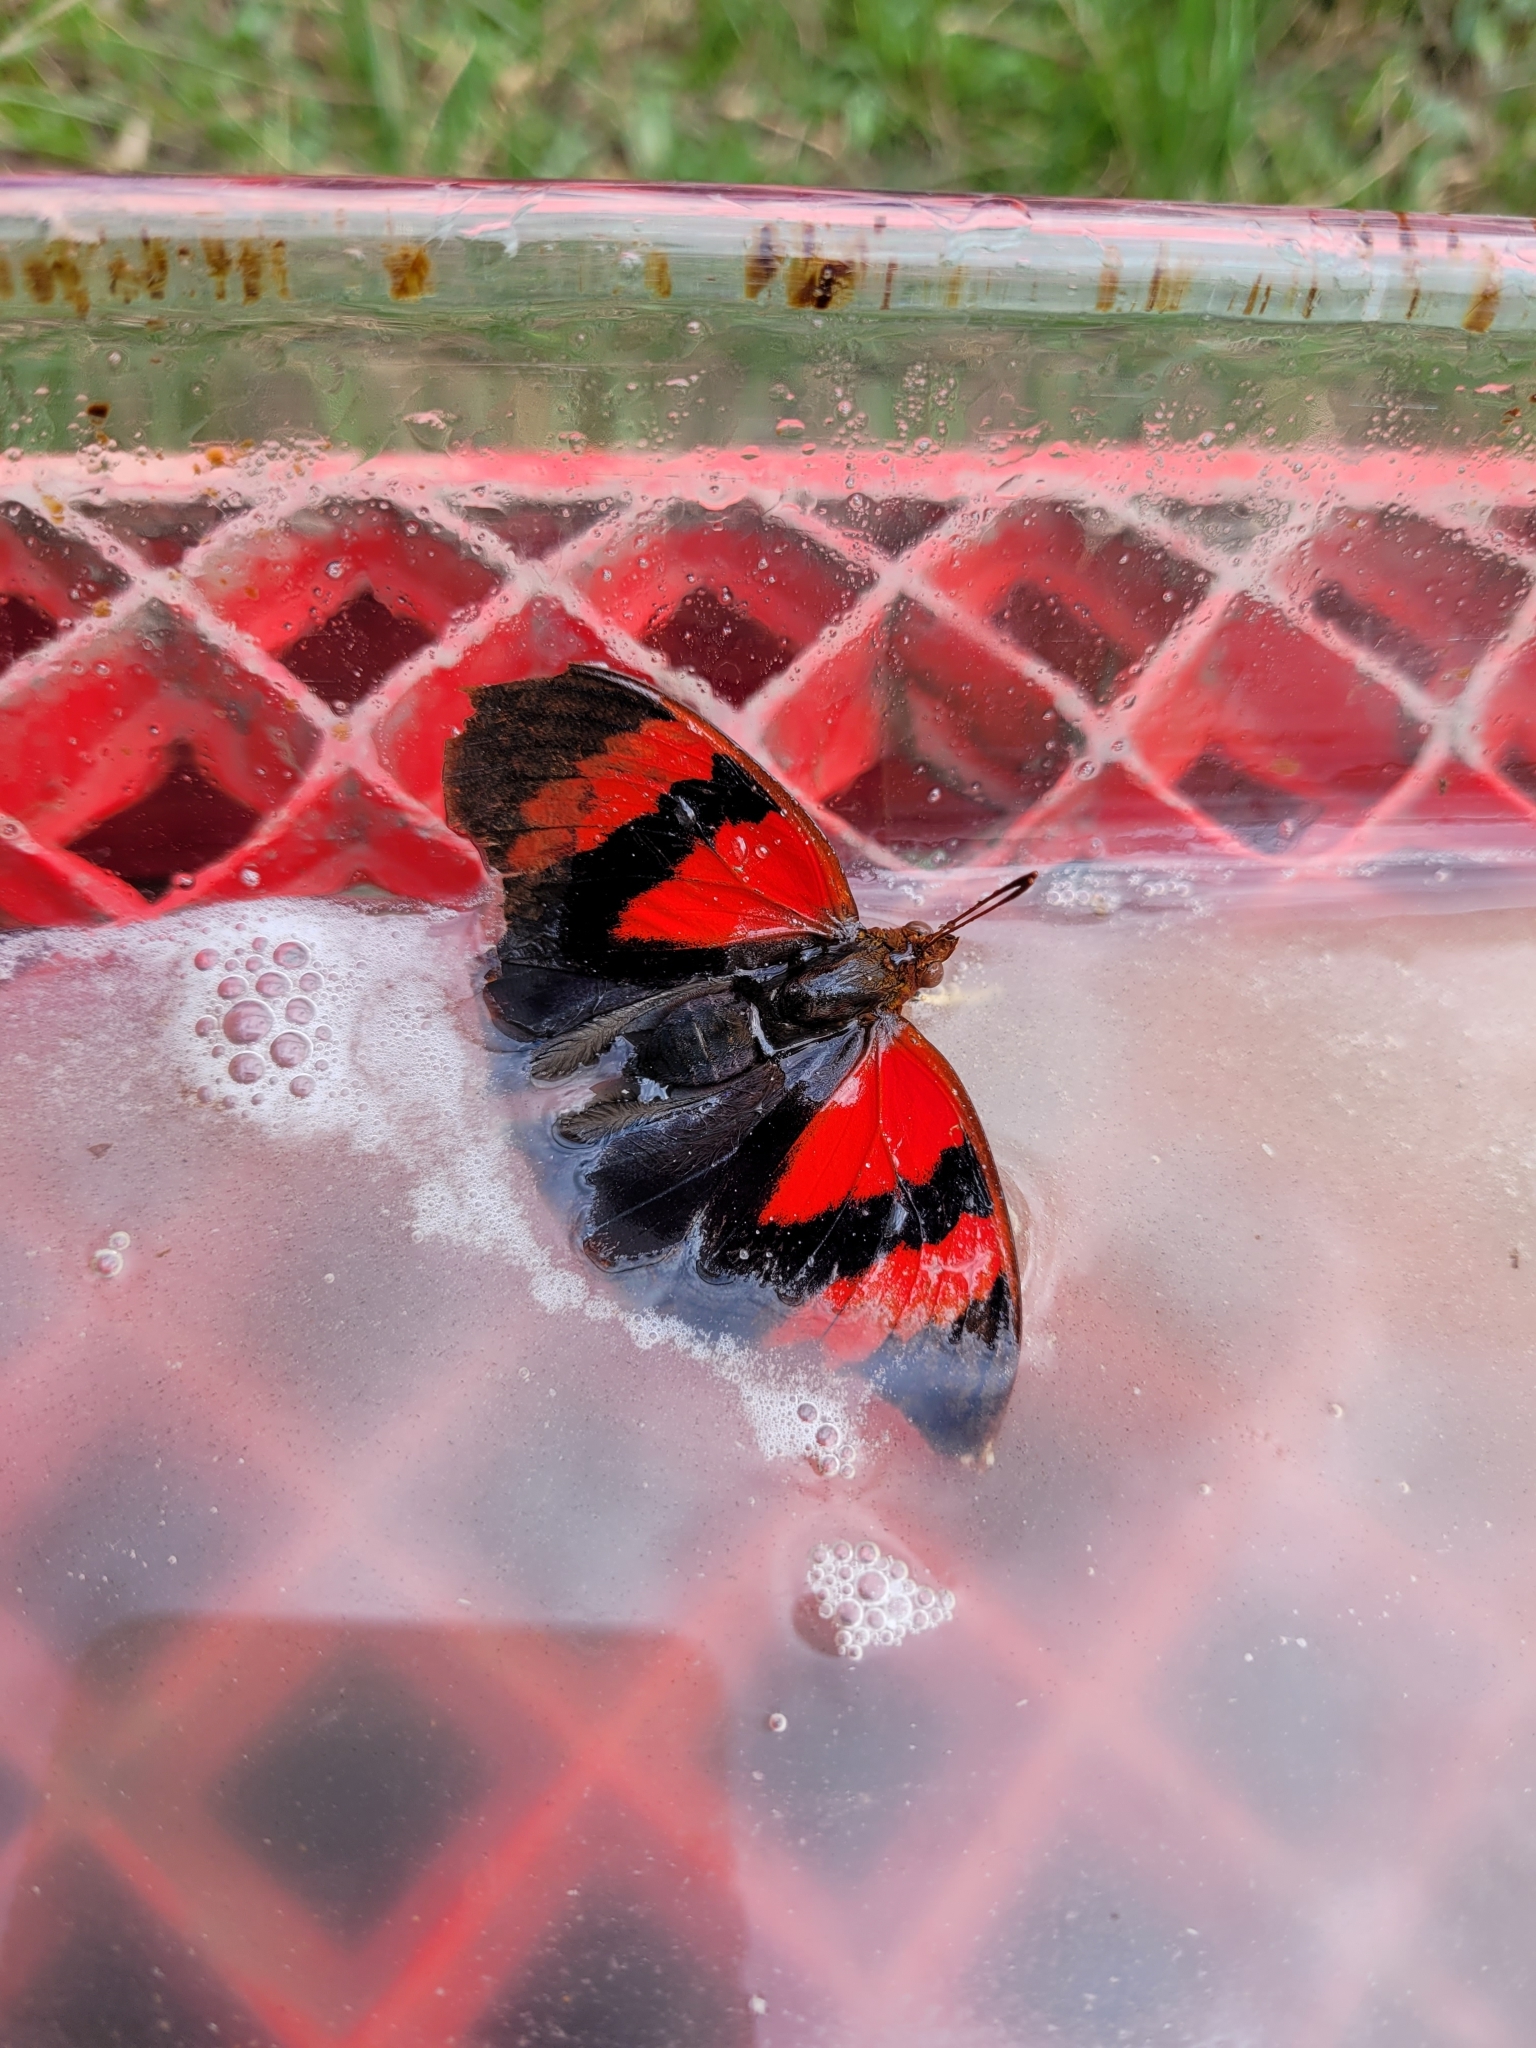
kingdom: Animalia
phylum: Arthropoda
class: Insecta
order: Lepidoptera
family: Nymphalidae
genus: Siderone
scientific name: Siderone galanthis
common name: Red-striped leafwing
